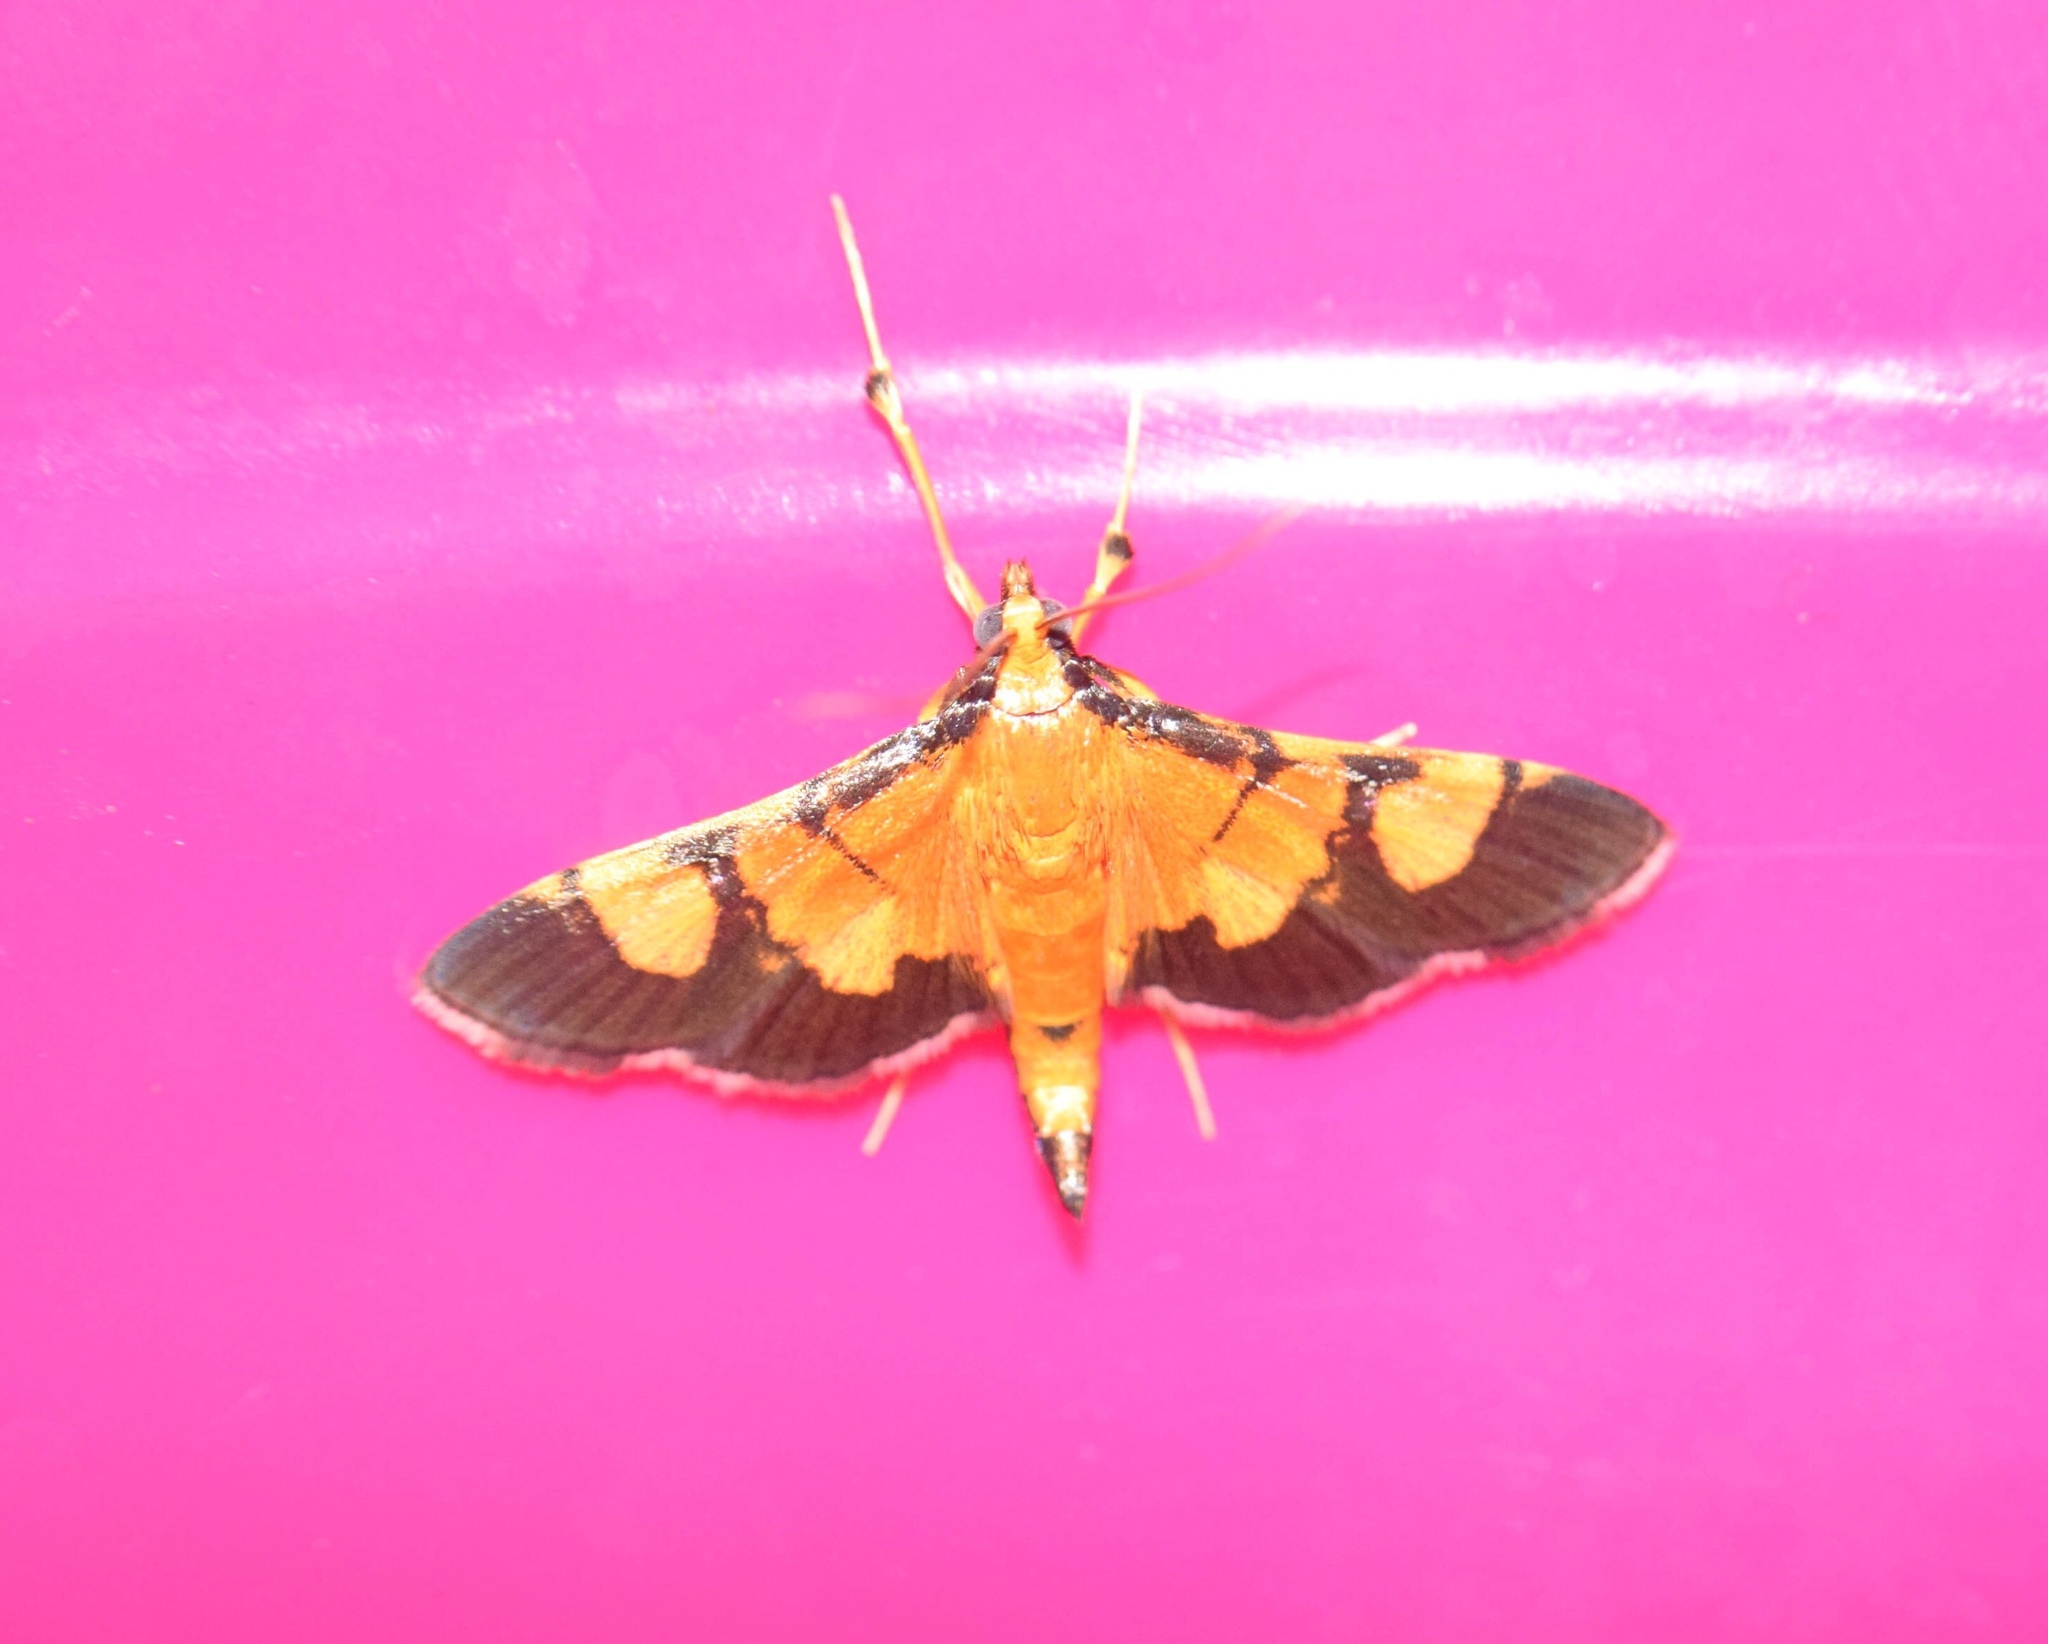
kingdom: Animalia
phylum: Arthropoda
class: Insecta
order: Lepidoptera
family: Crambidae
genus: Aethaloessa
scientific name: Aethaloessa floridalis
